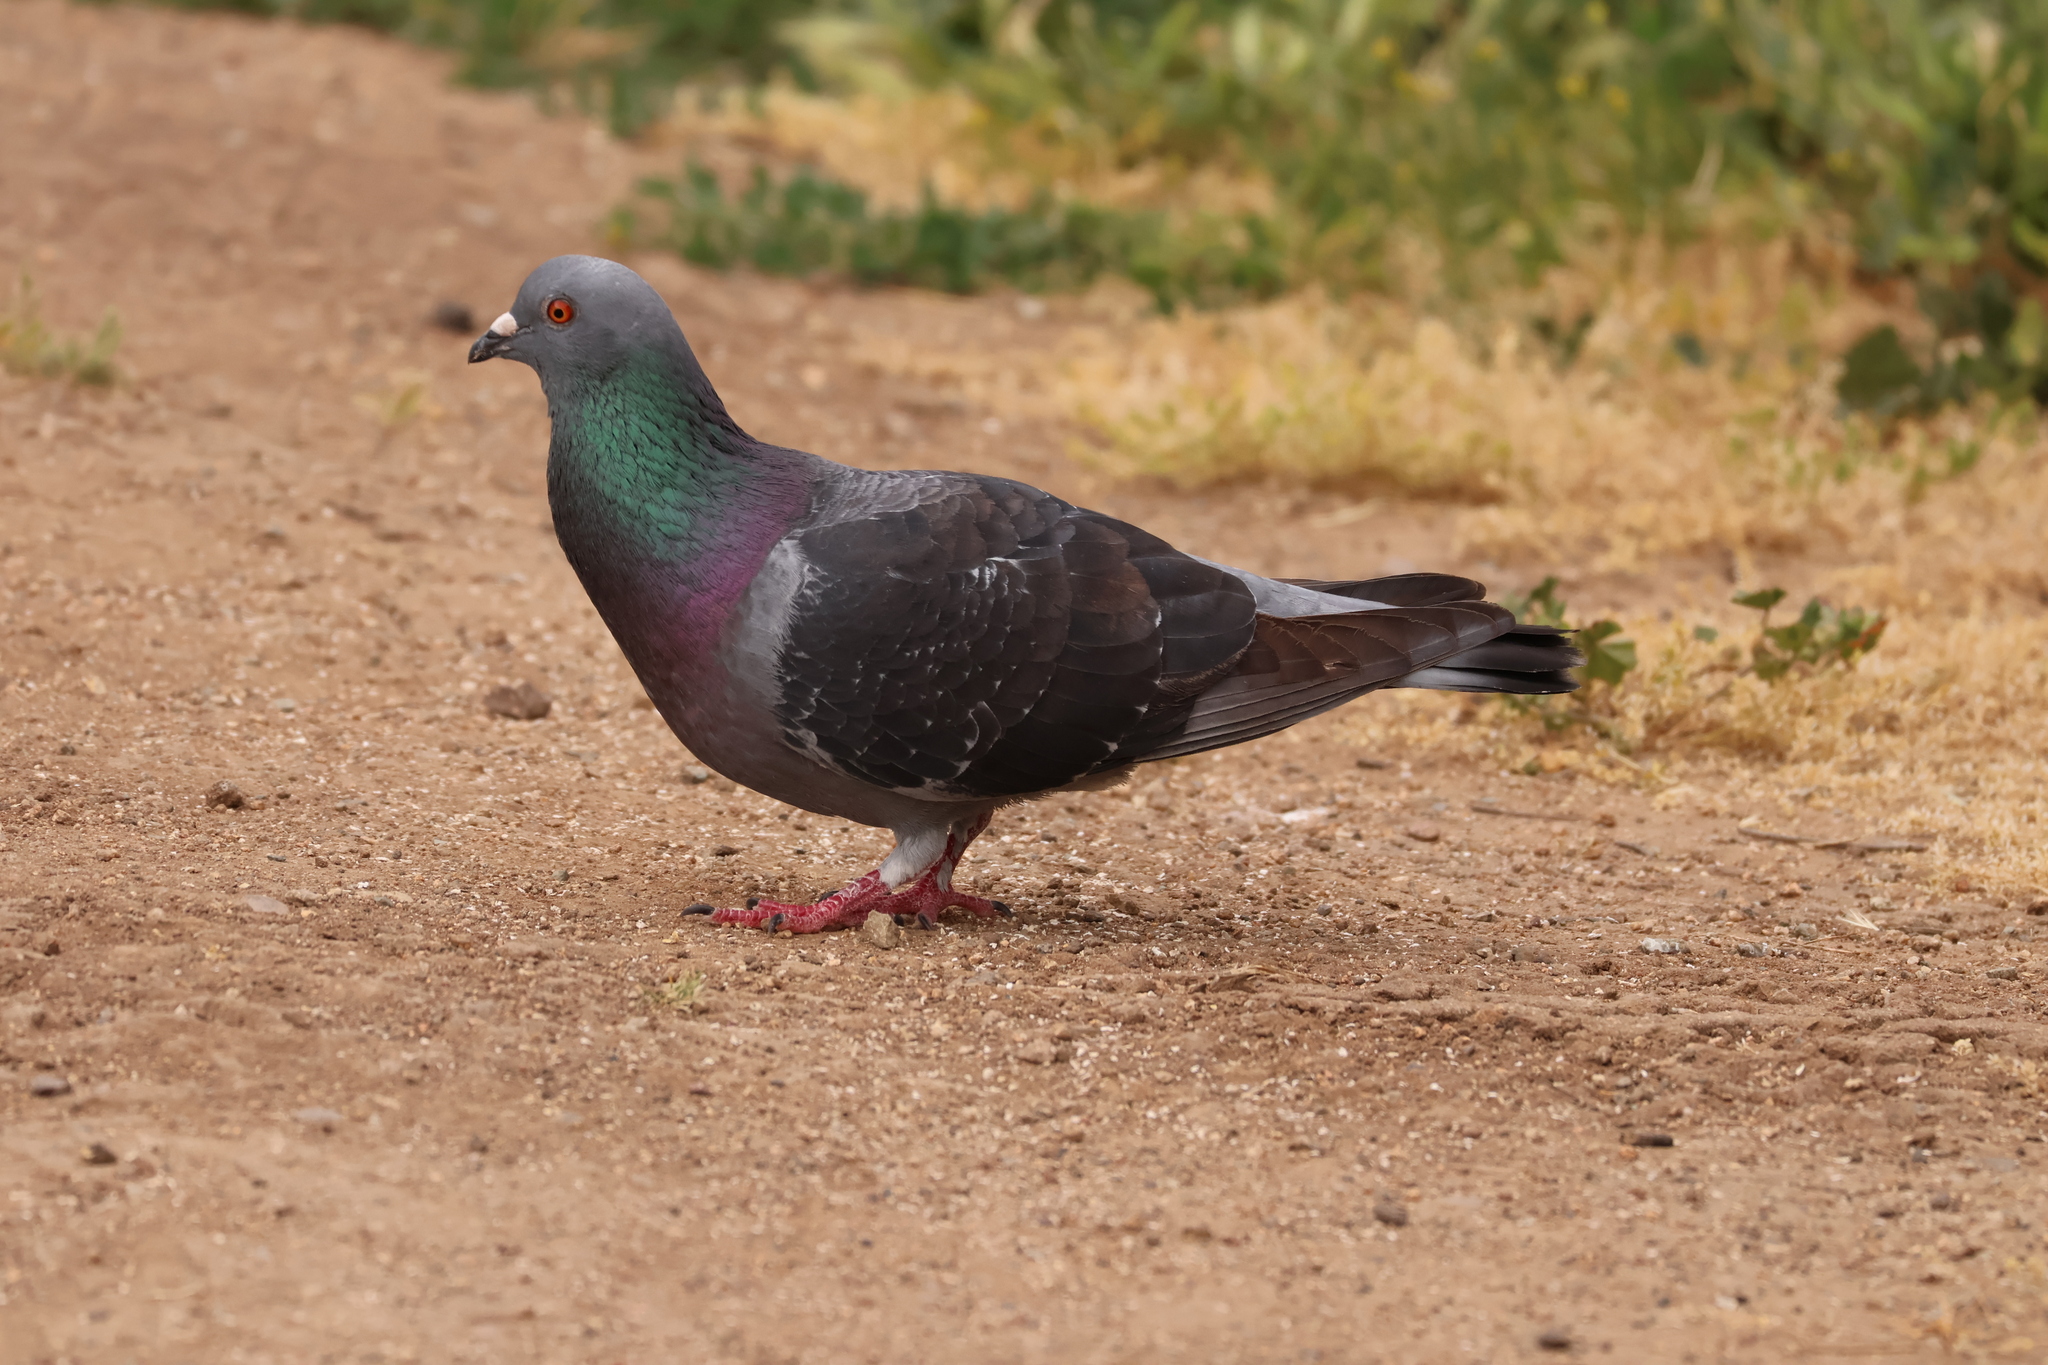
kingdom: Animalia
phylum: Chordata
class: Aves
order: Columbiformes
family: Columbidae
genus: Columba
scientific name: Columba livia
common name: Rock pigeon
